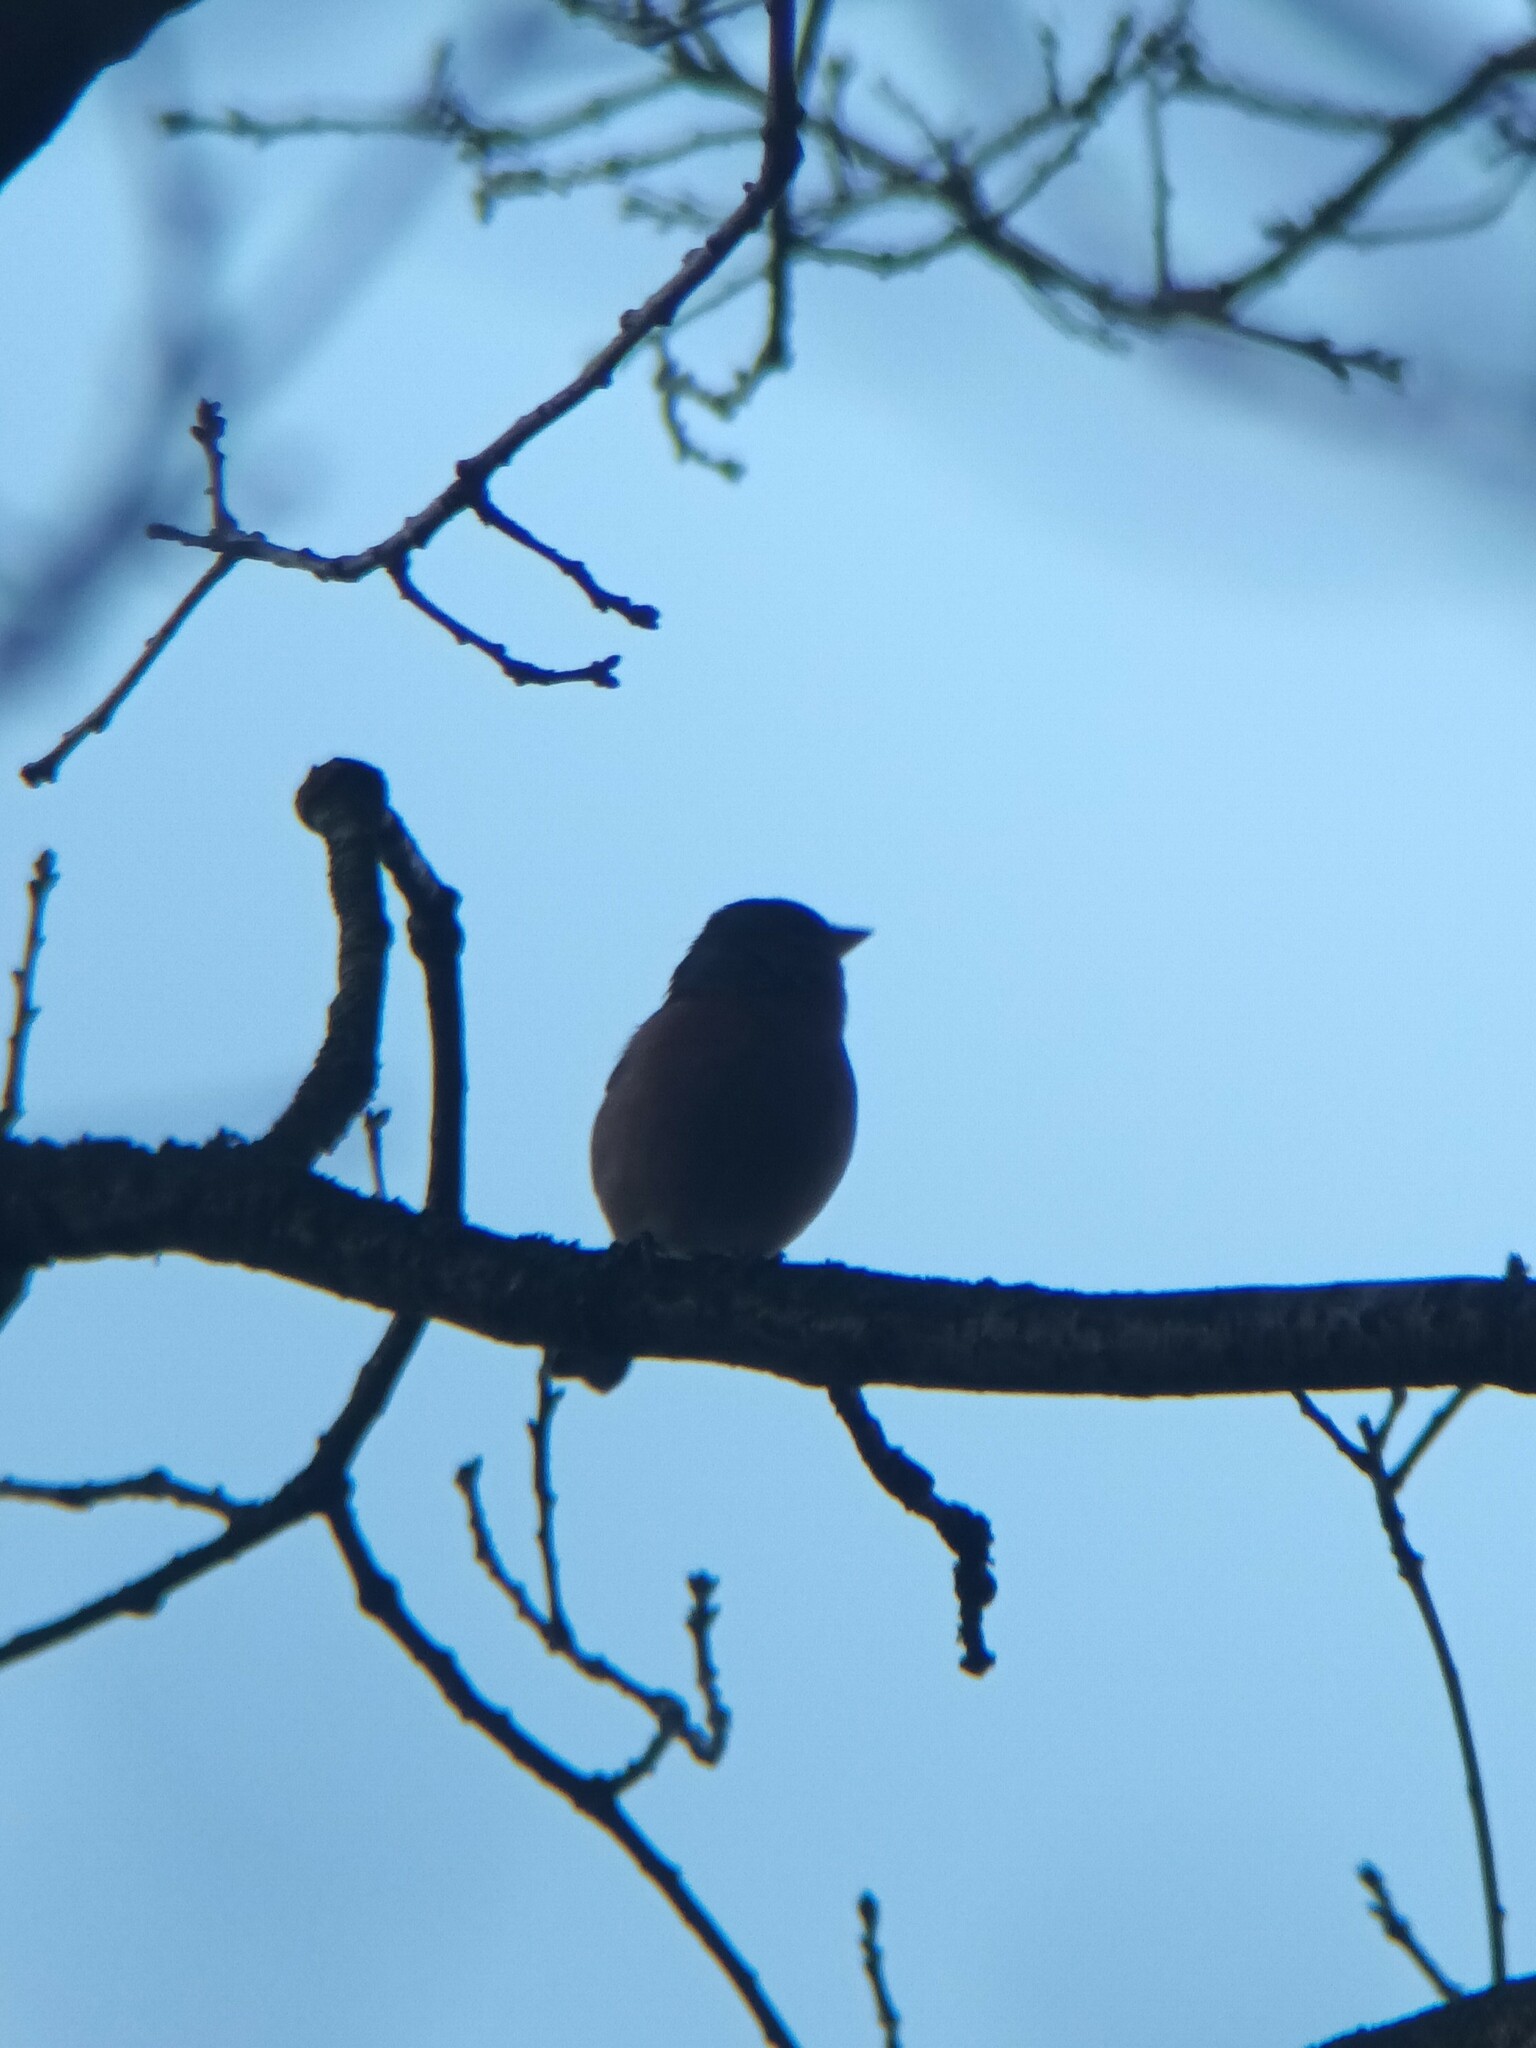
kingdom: Animalia
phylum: Chordata
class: Aves
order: Passeriformes
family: Fringillidae
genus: Fringilla
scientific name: Fringilla coelebs
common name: Common chaffinch
